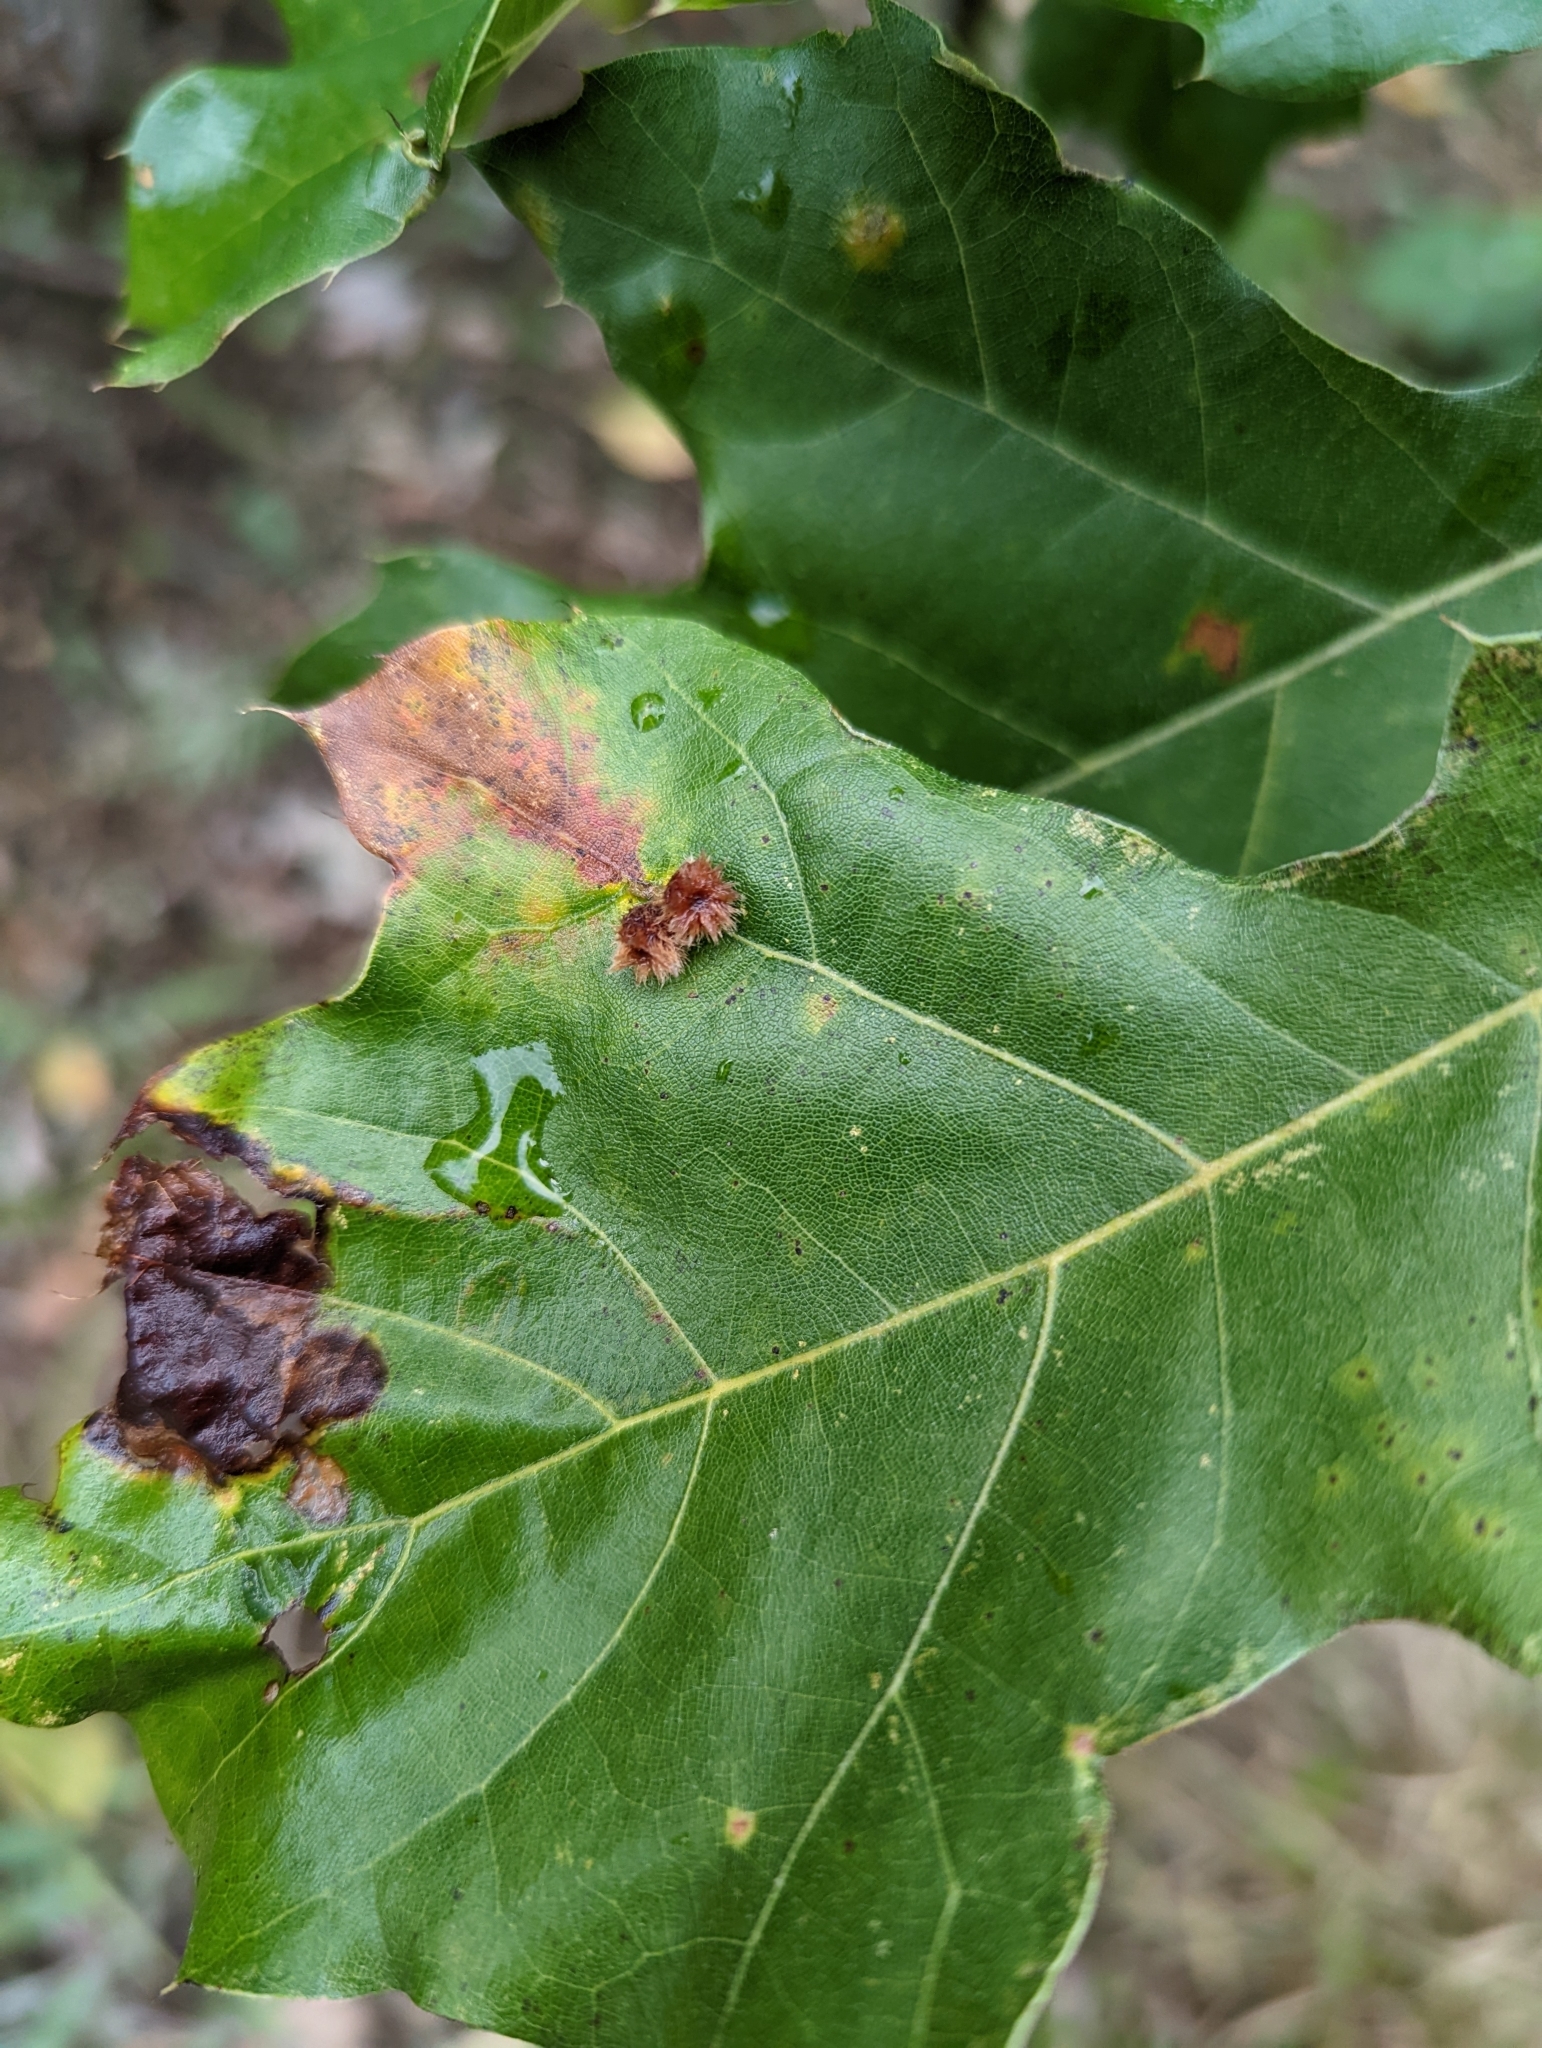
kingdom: Animalia
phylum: Arthropoda
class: Insecta
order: Hymenoptera
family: Cynipidae
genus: Callirhytis
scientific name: Callirhytis
